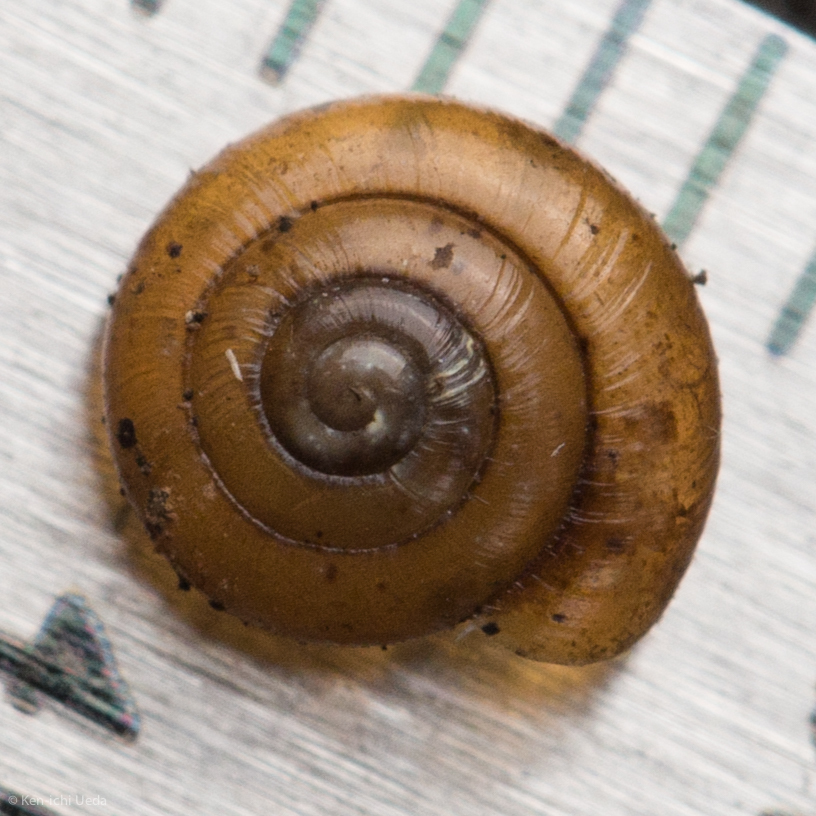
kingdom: Animalia
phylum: Mollusca
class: Gastropoda
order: Stylommatophora
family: Gastrodontidae
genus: Zonitoides
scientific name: Zonitoides arboreus
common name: Quick gloss
